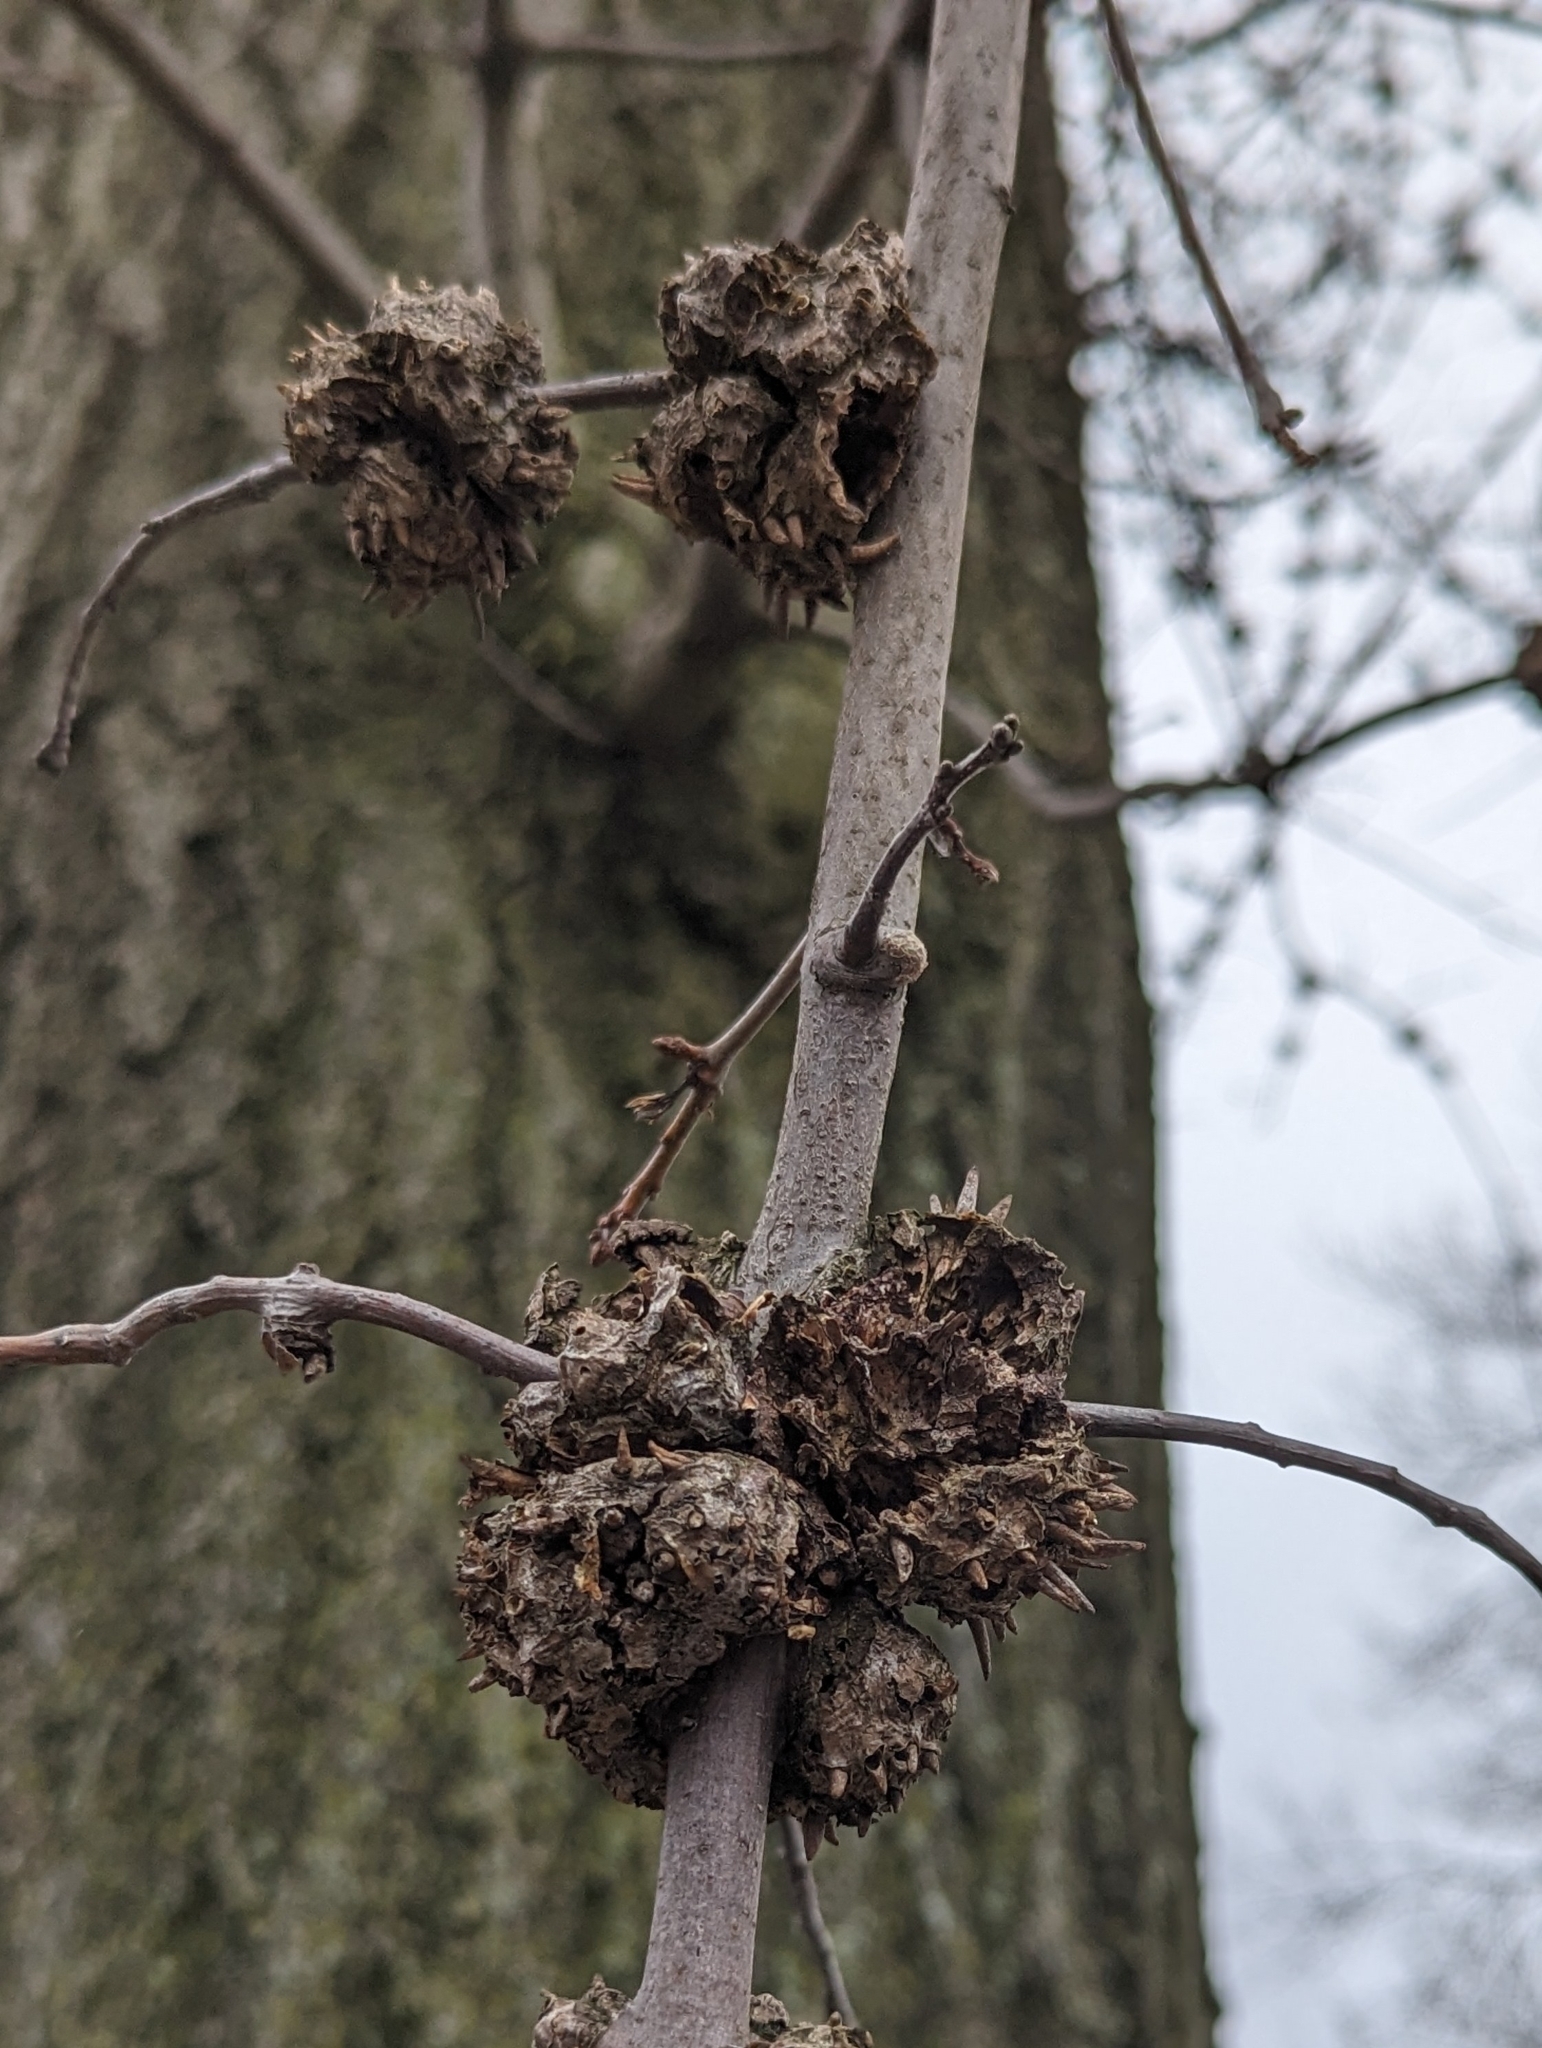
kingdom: Animalia
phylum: Arthropoda
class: Insecta
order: Hymenoptera
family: Cynipidae
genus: Callirhytis
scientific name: Callirhytis
